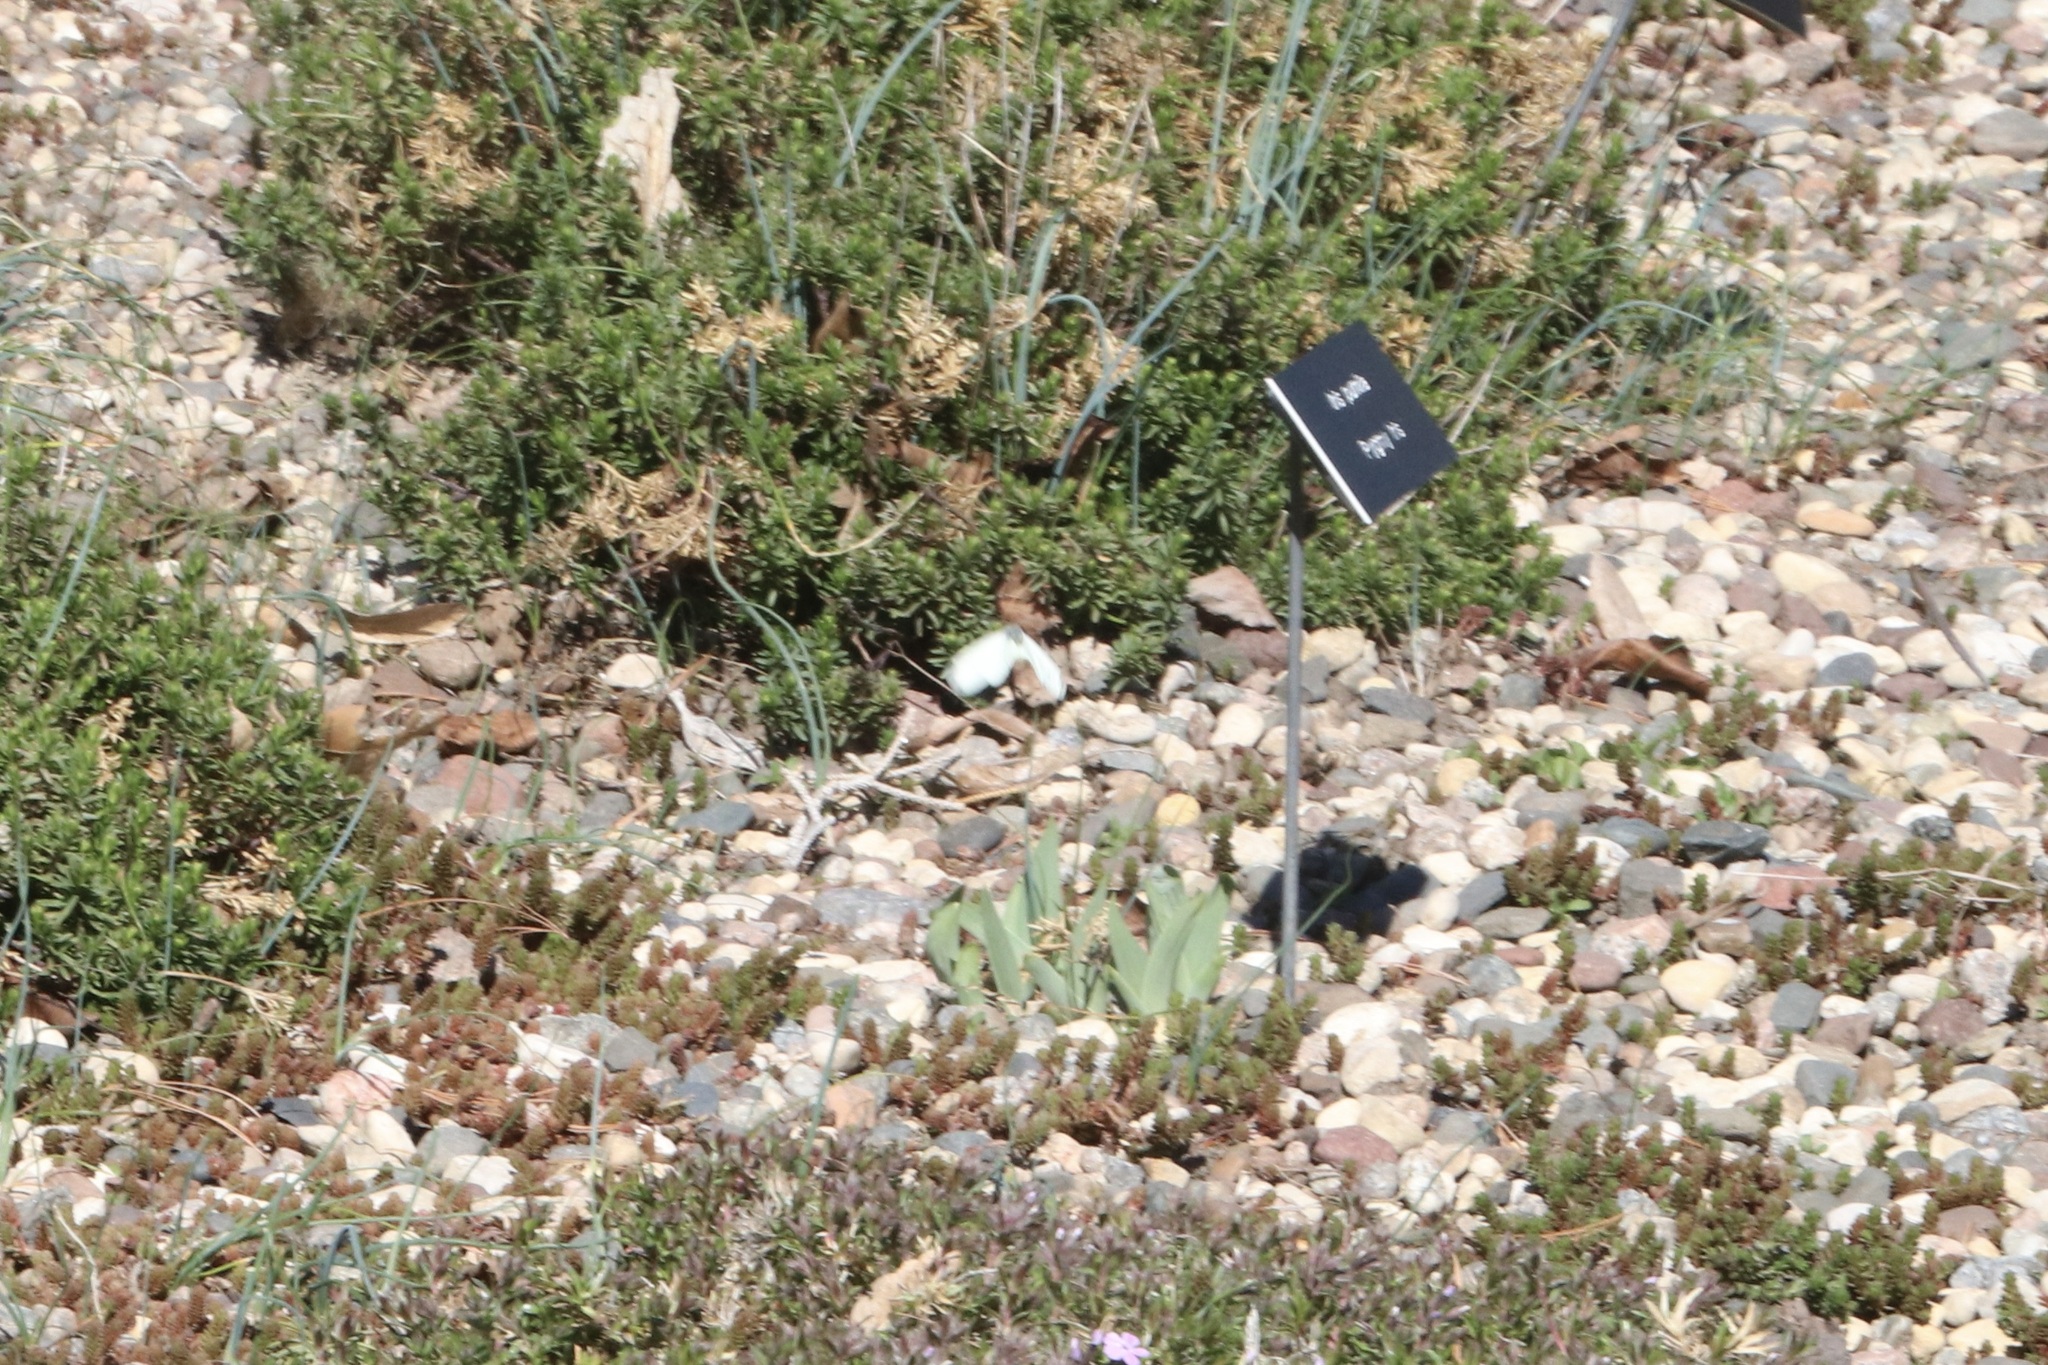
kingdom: Animalia
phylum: Arthropoda
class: Insecta
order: Lepidoptera
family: Pieridae
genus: Pieris
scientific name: Pieris rapae
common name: Small white
